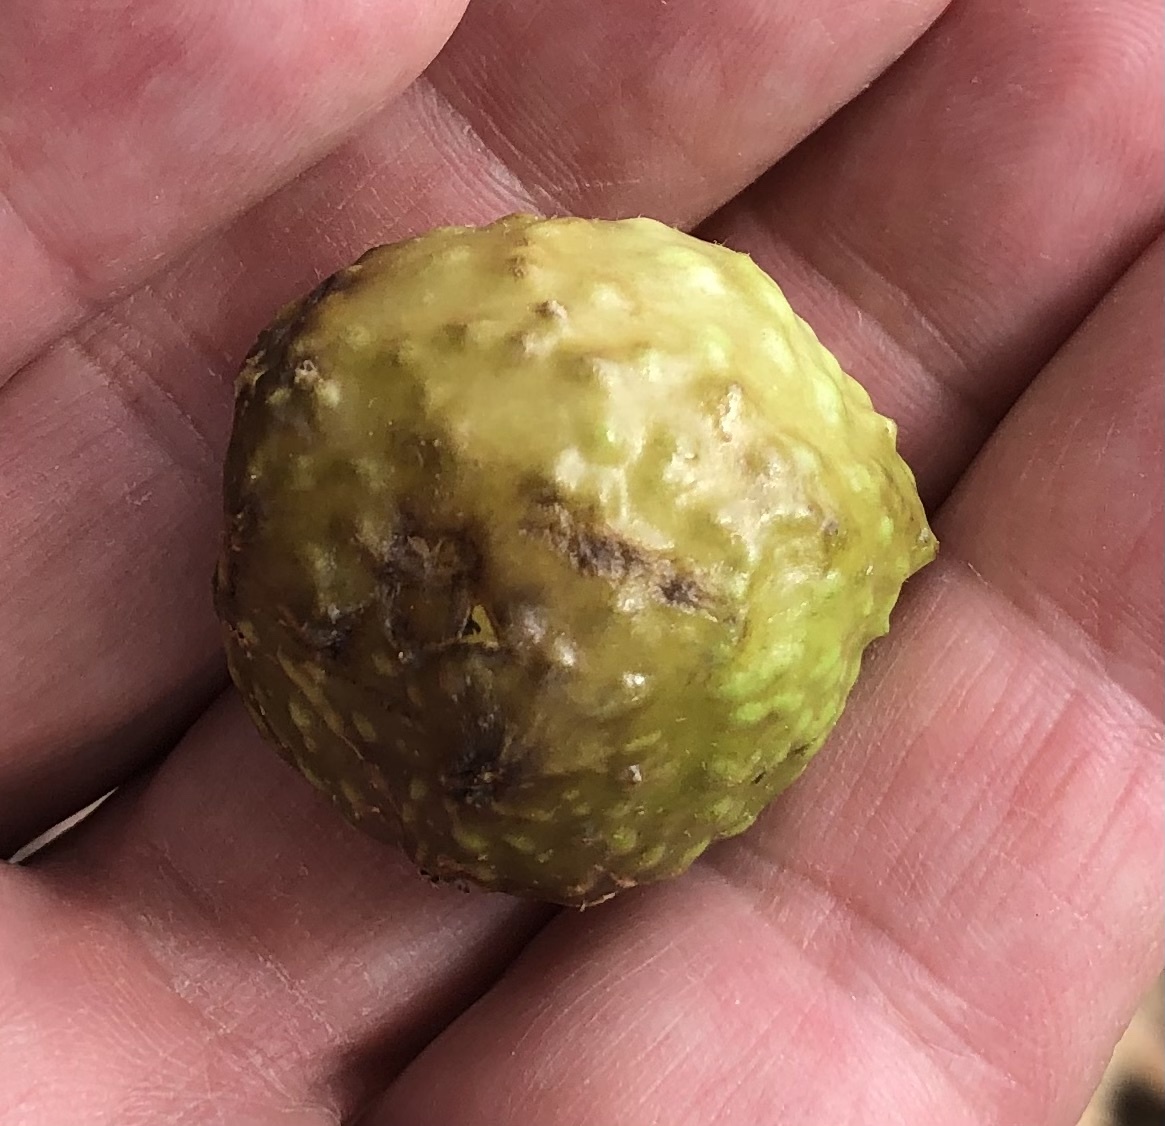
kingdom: Animalia
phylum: Arthropoda
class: Insecta
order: Hymenoptera
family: Cynipidae
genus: Amphibolips
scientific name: Amphibolips
